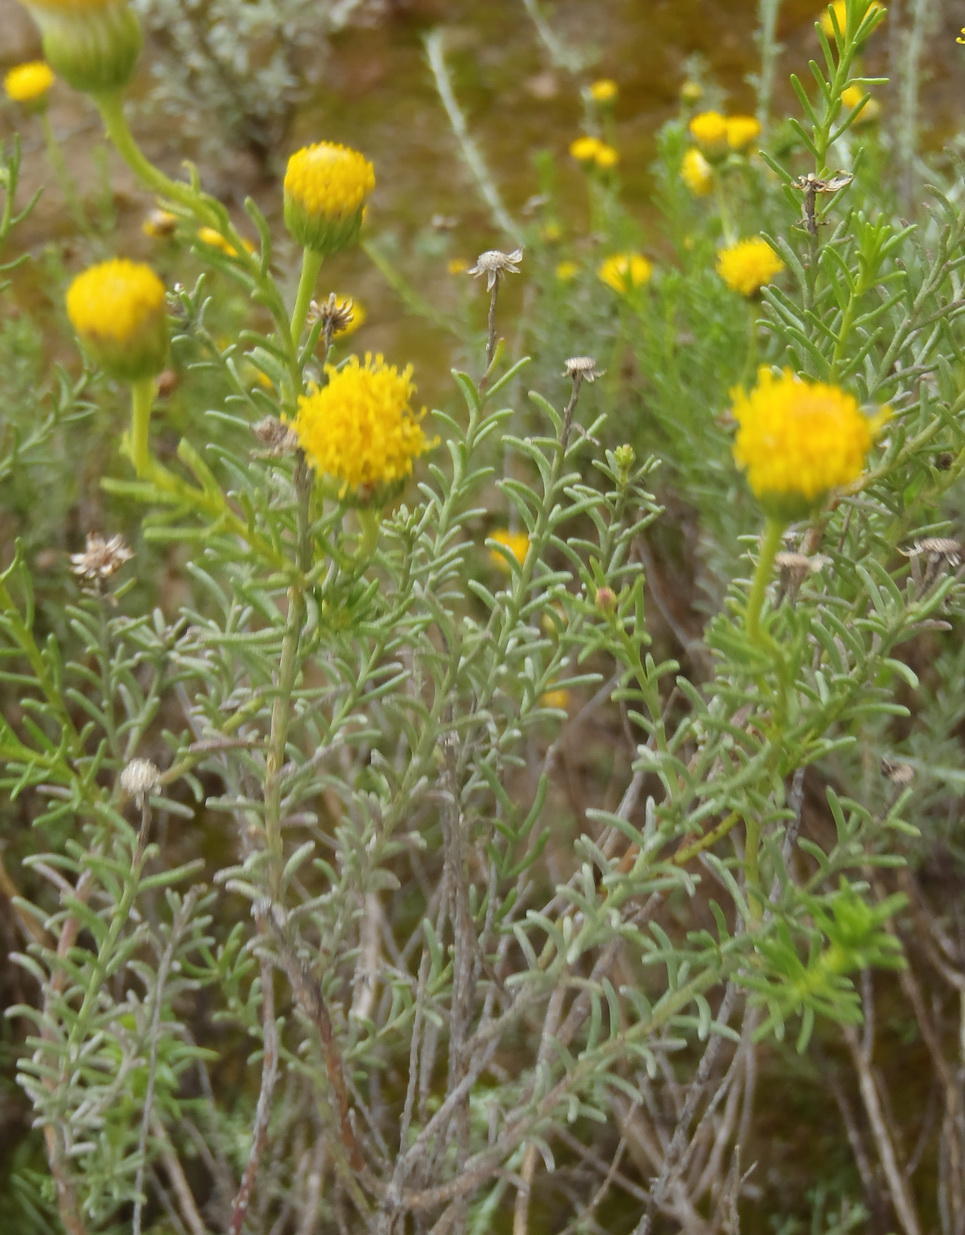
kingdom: Plantae
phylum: Tracheophyta
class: Magnoliopsida
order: Asterales
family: Asteraceae
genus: Chrysocoma
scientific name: Chrysocoma ciliata
